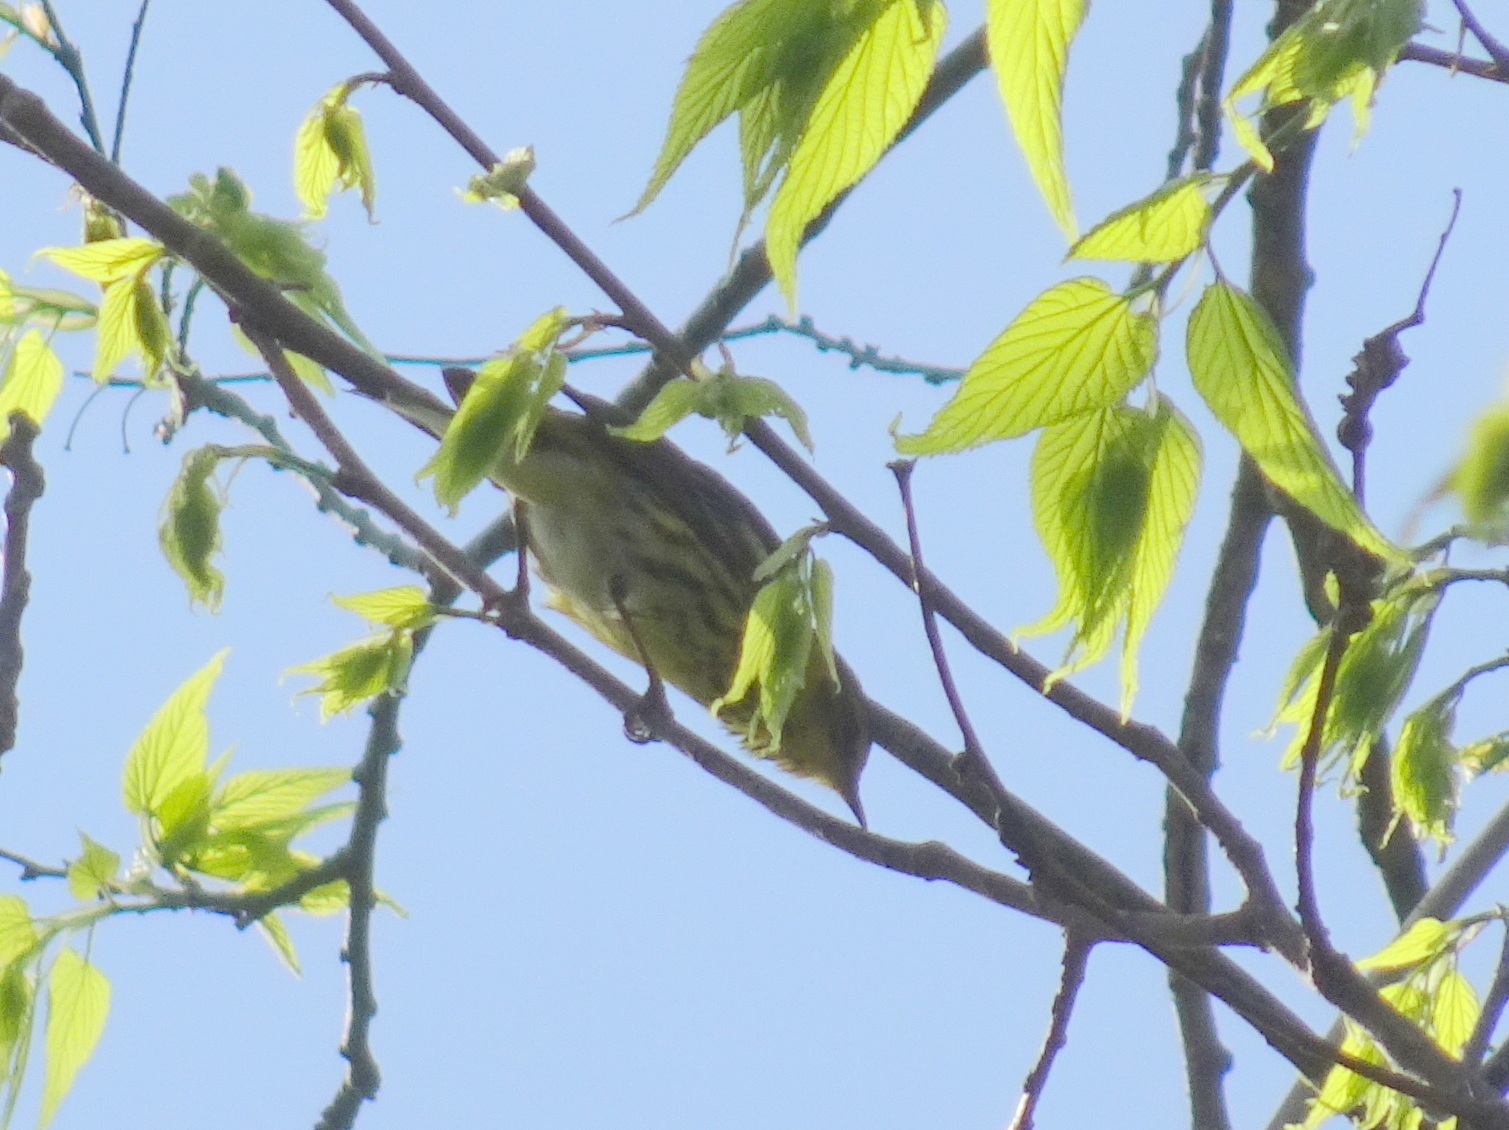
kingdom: Animalia
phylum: Chordata
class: Aves
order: Passeriformes
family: Parulidae
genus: Setophaga
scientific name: Setophaga tigrina
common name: Cape may warbler
